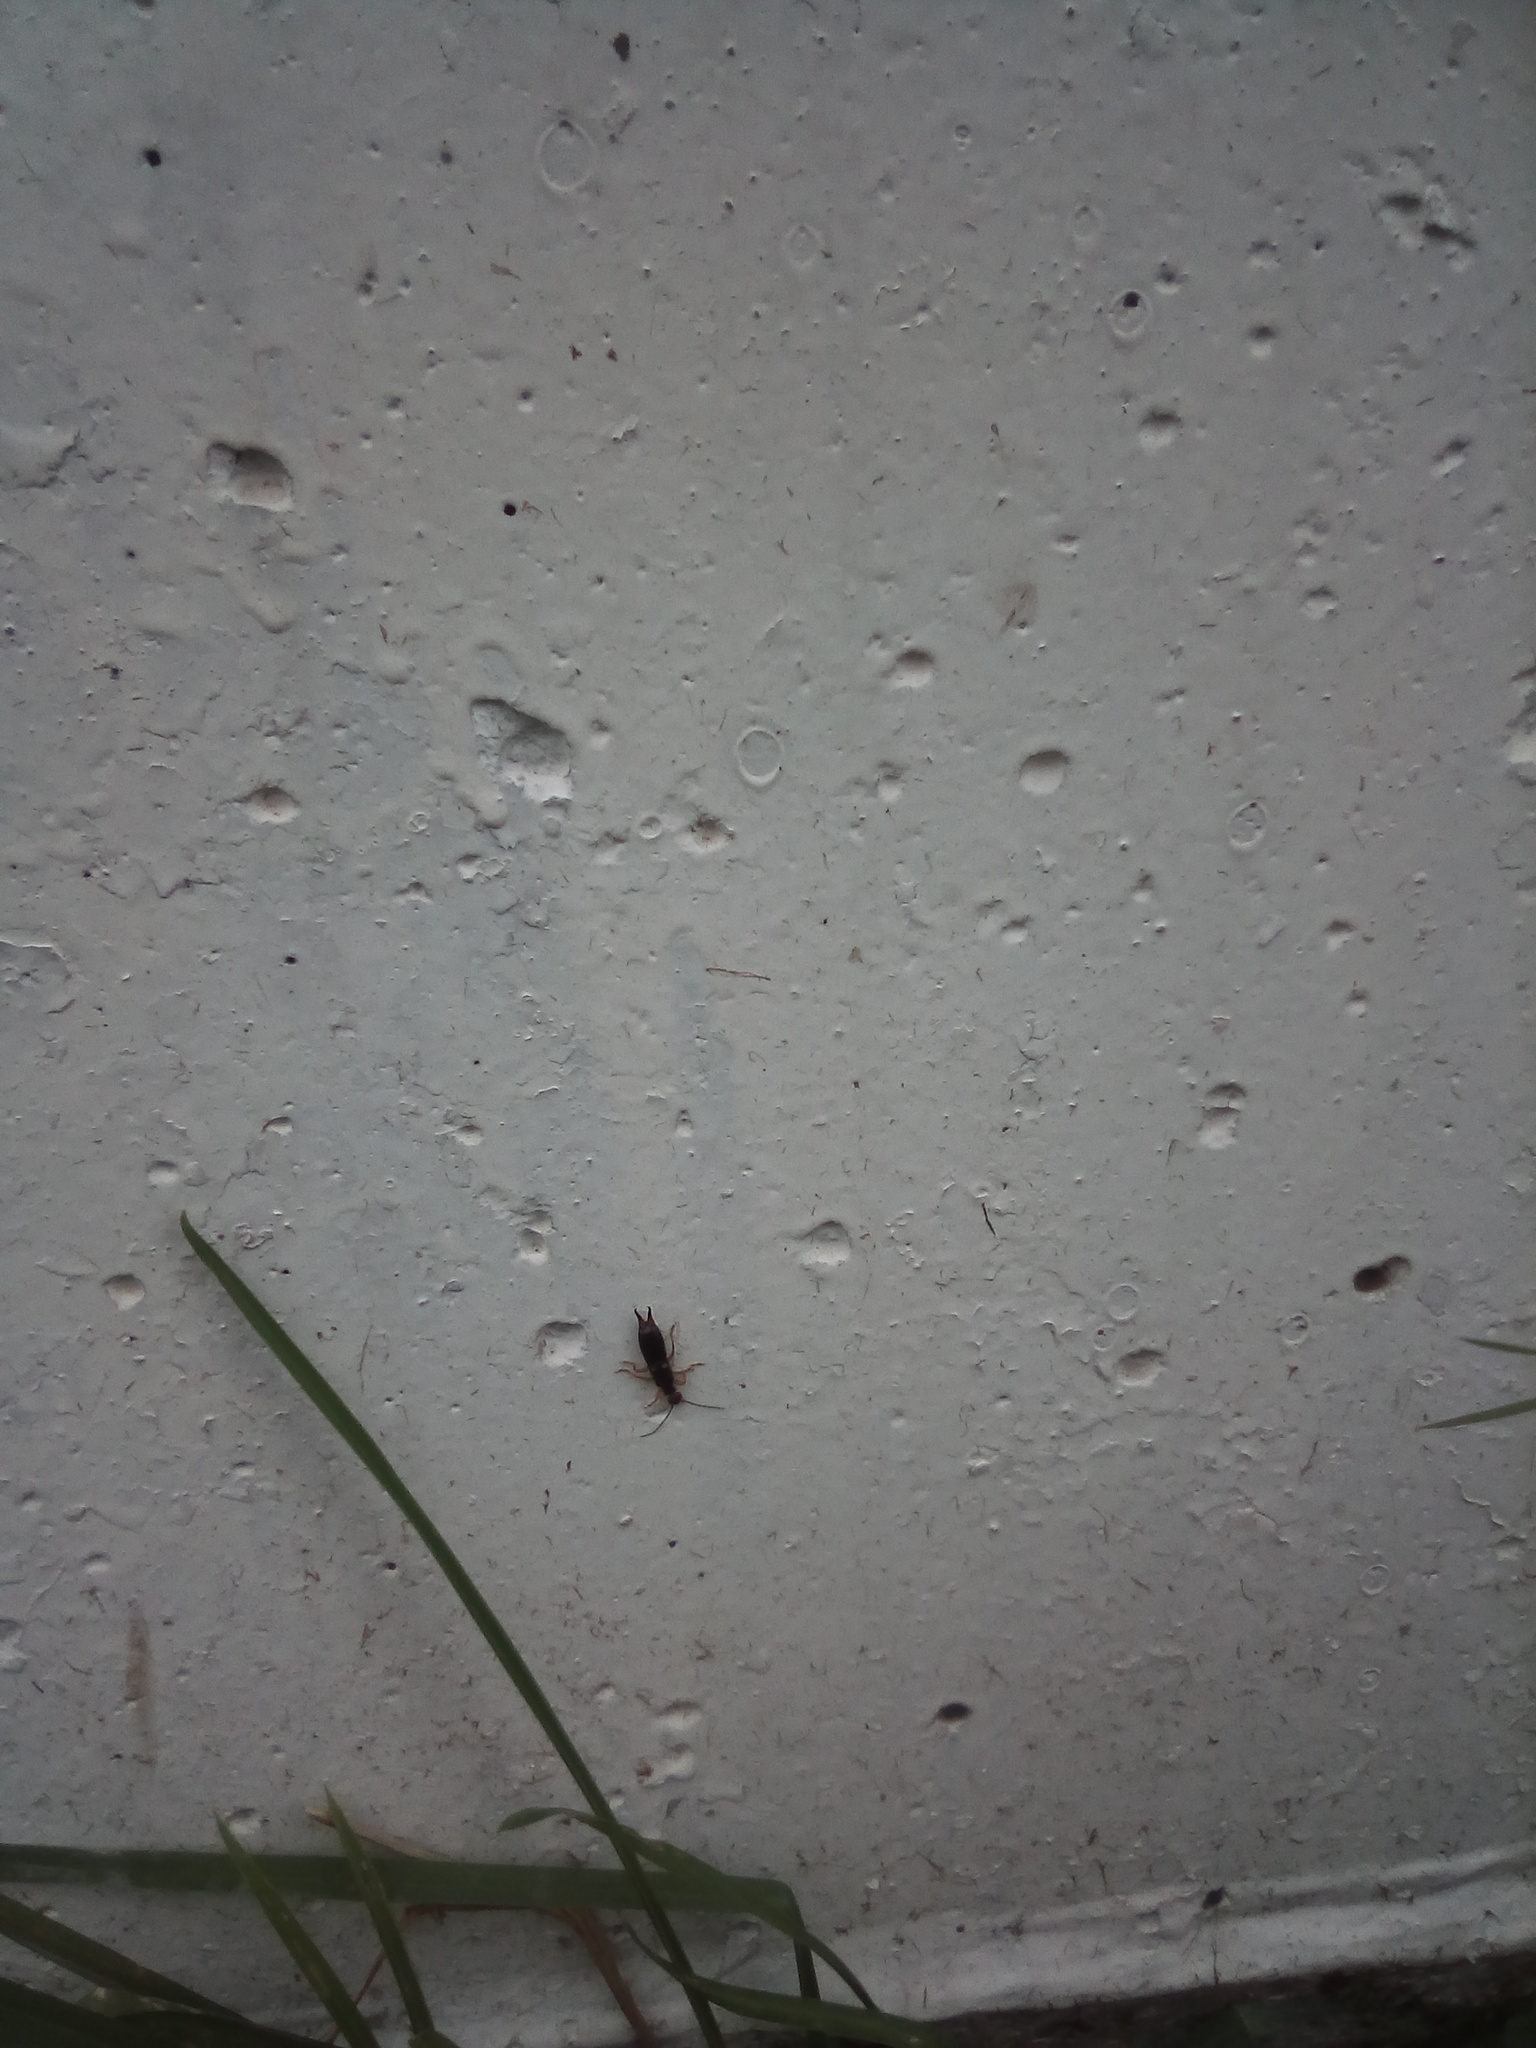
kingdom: Animalia
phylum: Arthropoda
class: Insecta
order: Dermaptera
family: Forficulidae
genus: Forficula
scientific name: Forficula
